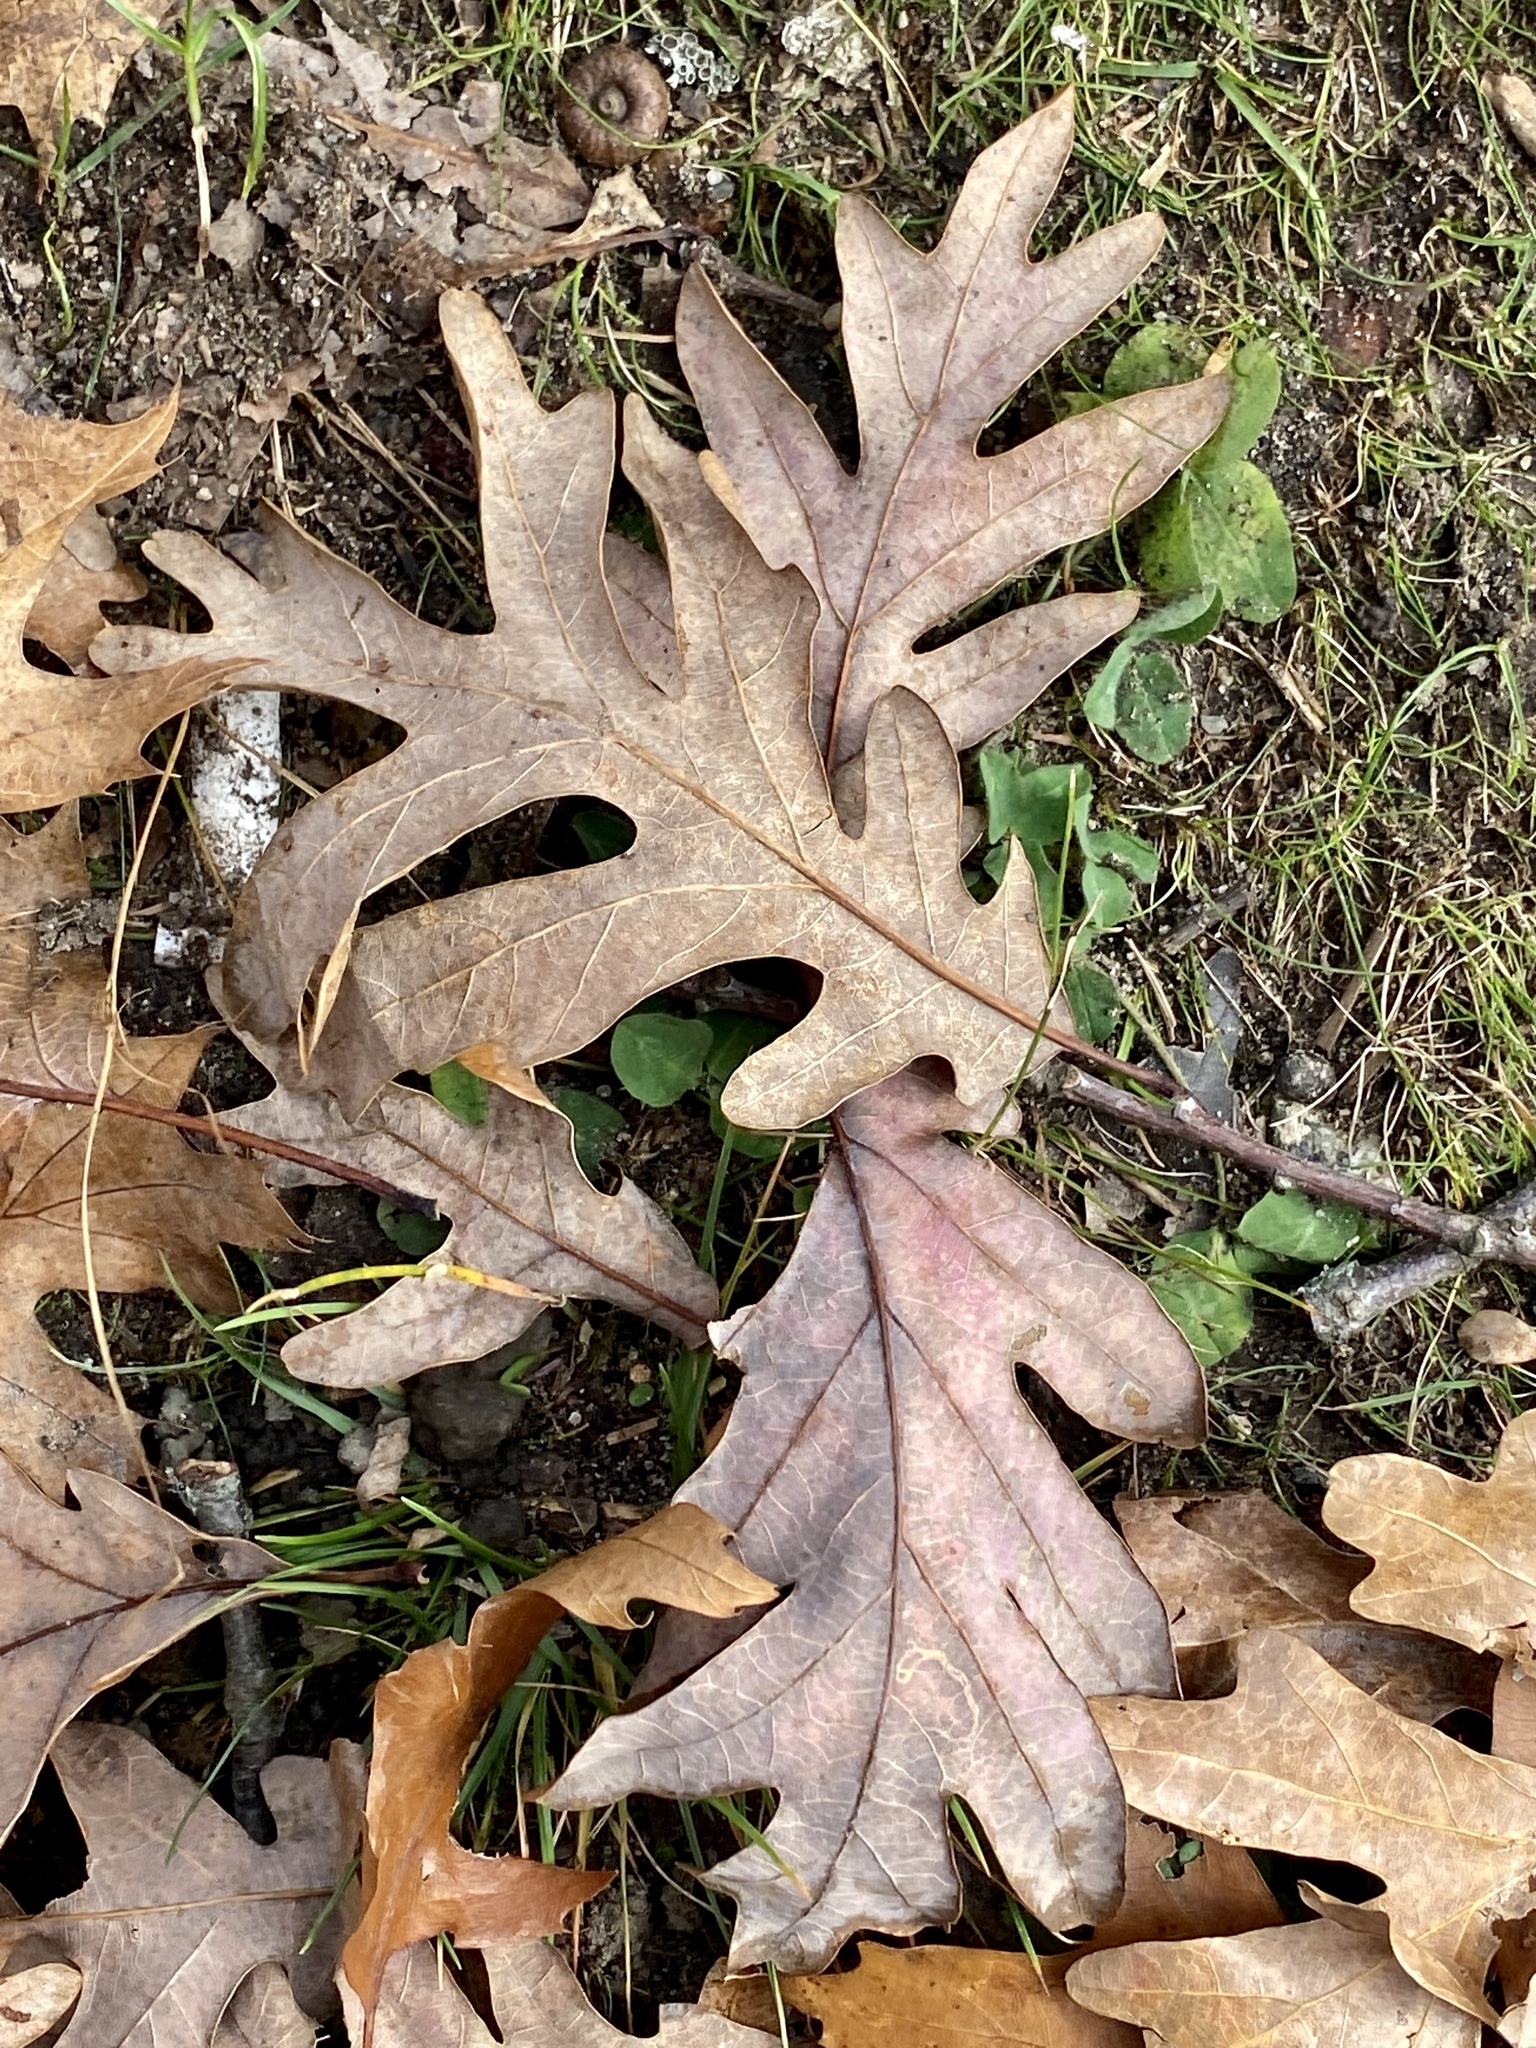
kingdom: Plantae
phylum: Tracheophyta
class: Magnoliopsida
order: Fagales
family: Fagaceae
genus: Quercus
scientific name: Quercus alba
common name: White oak
